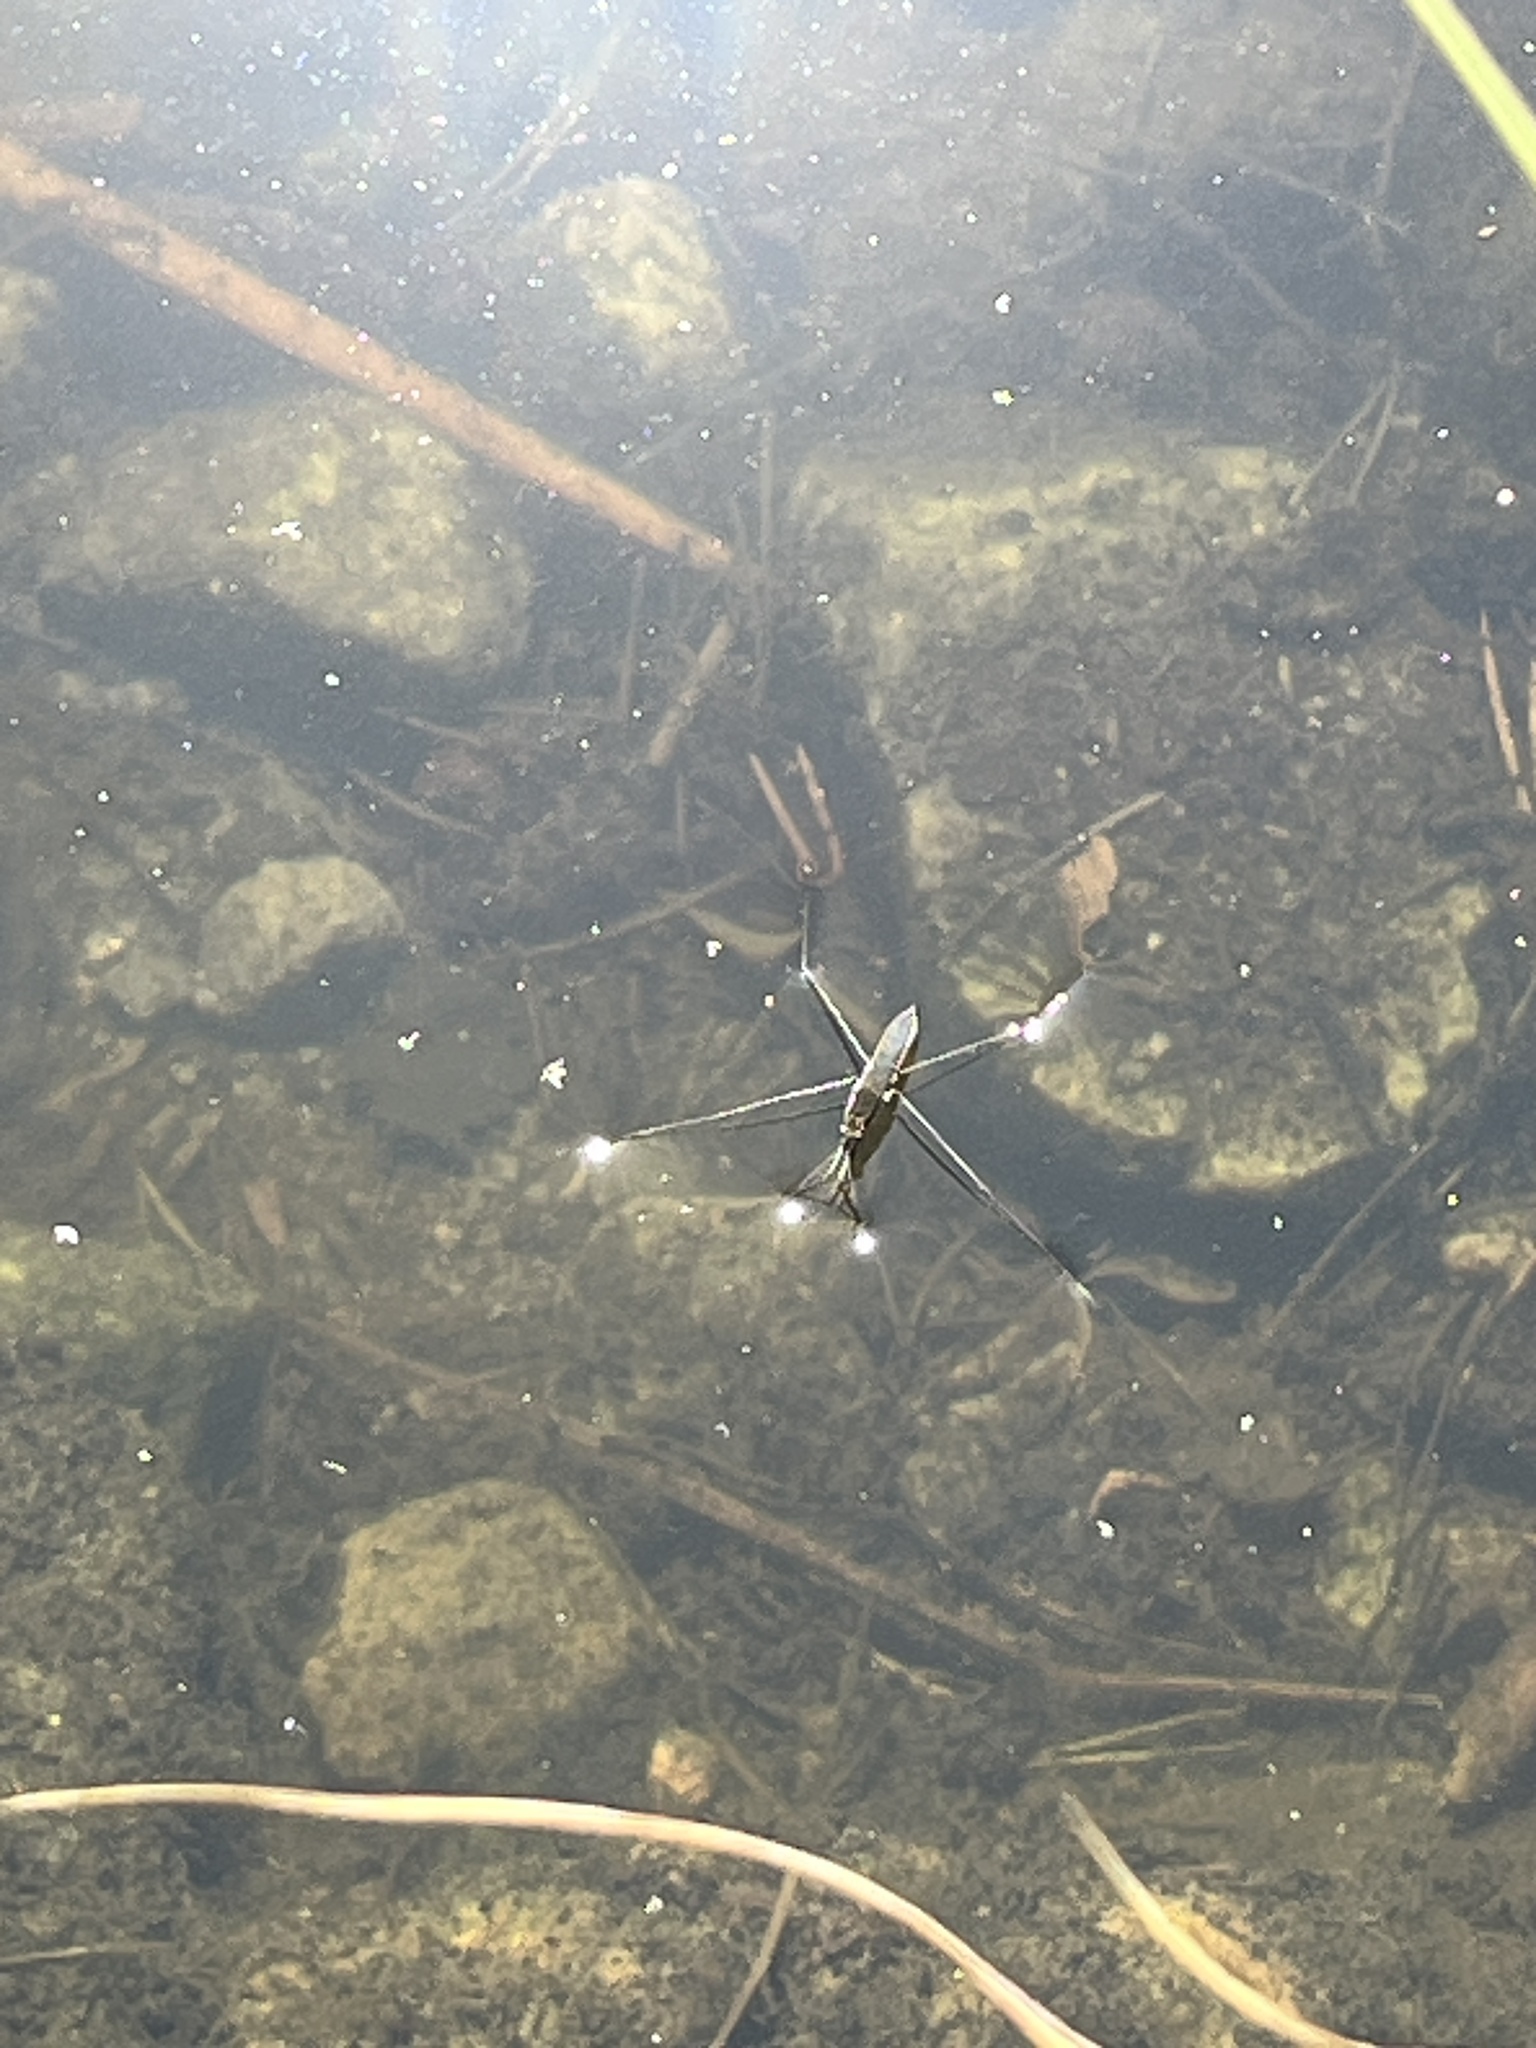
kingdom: Animalia
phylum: Arthropoda
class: Insecta
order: Hemiptera
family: Gerridae
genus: Aquarius
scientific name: Aquarius paludum
